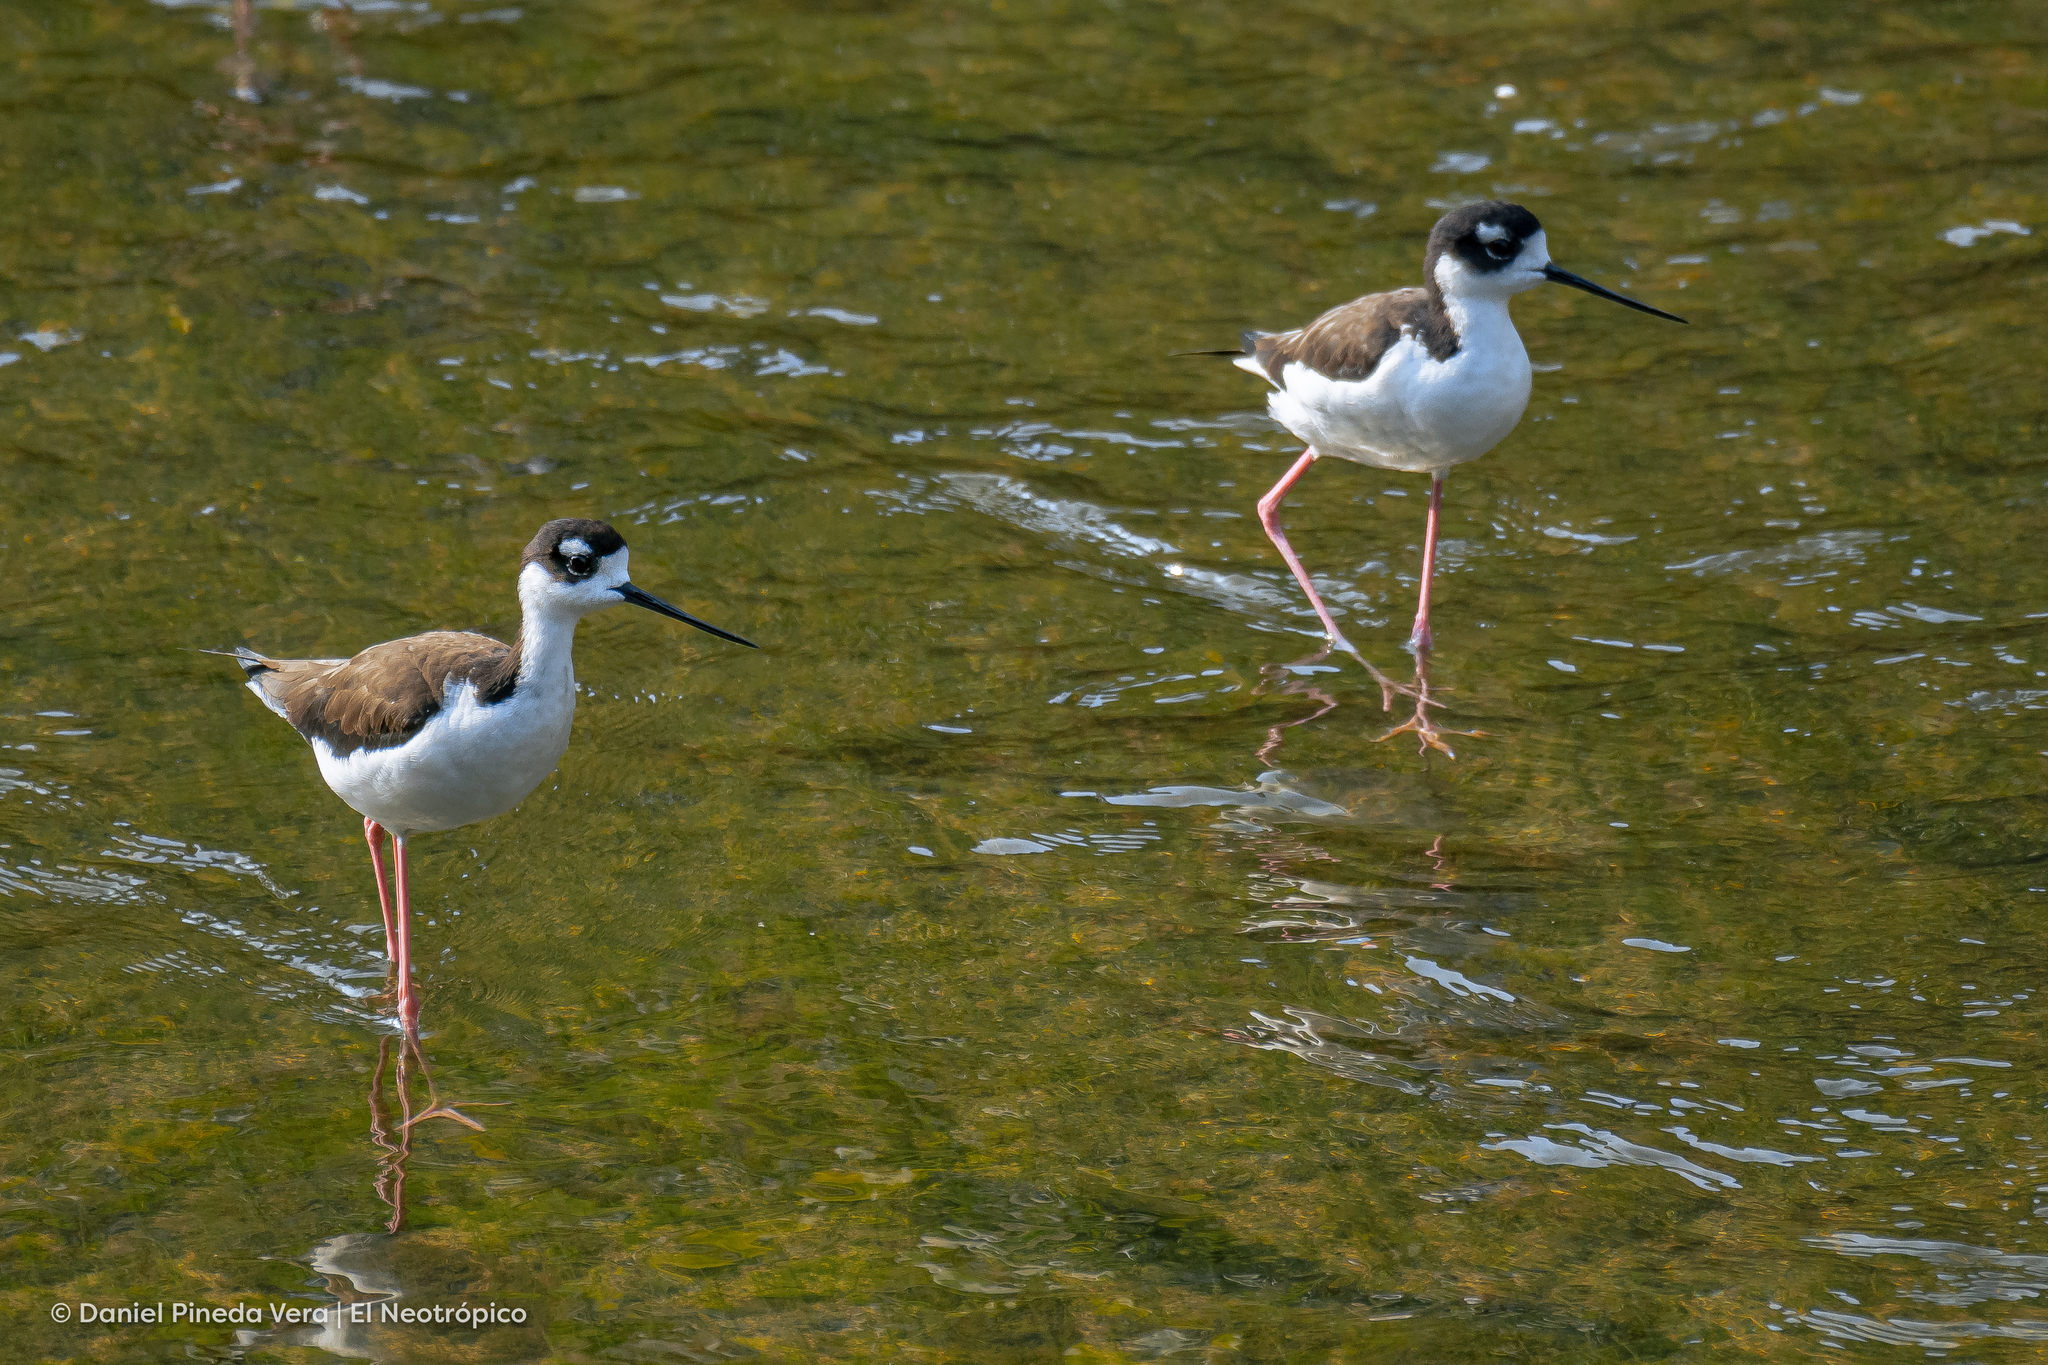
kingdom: Animalia
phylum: Chordata
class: Aves
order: Charadriiformes
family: Recurvirostridae
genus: Himantopus
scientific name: Himantopus mexicanus
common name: Black-necked stilt
